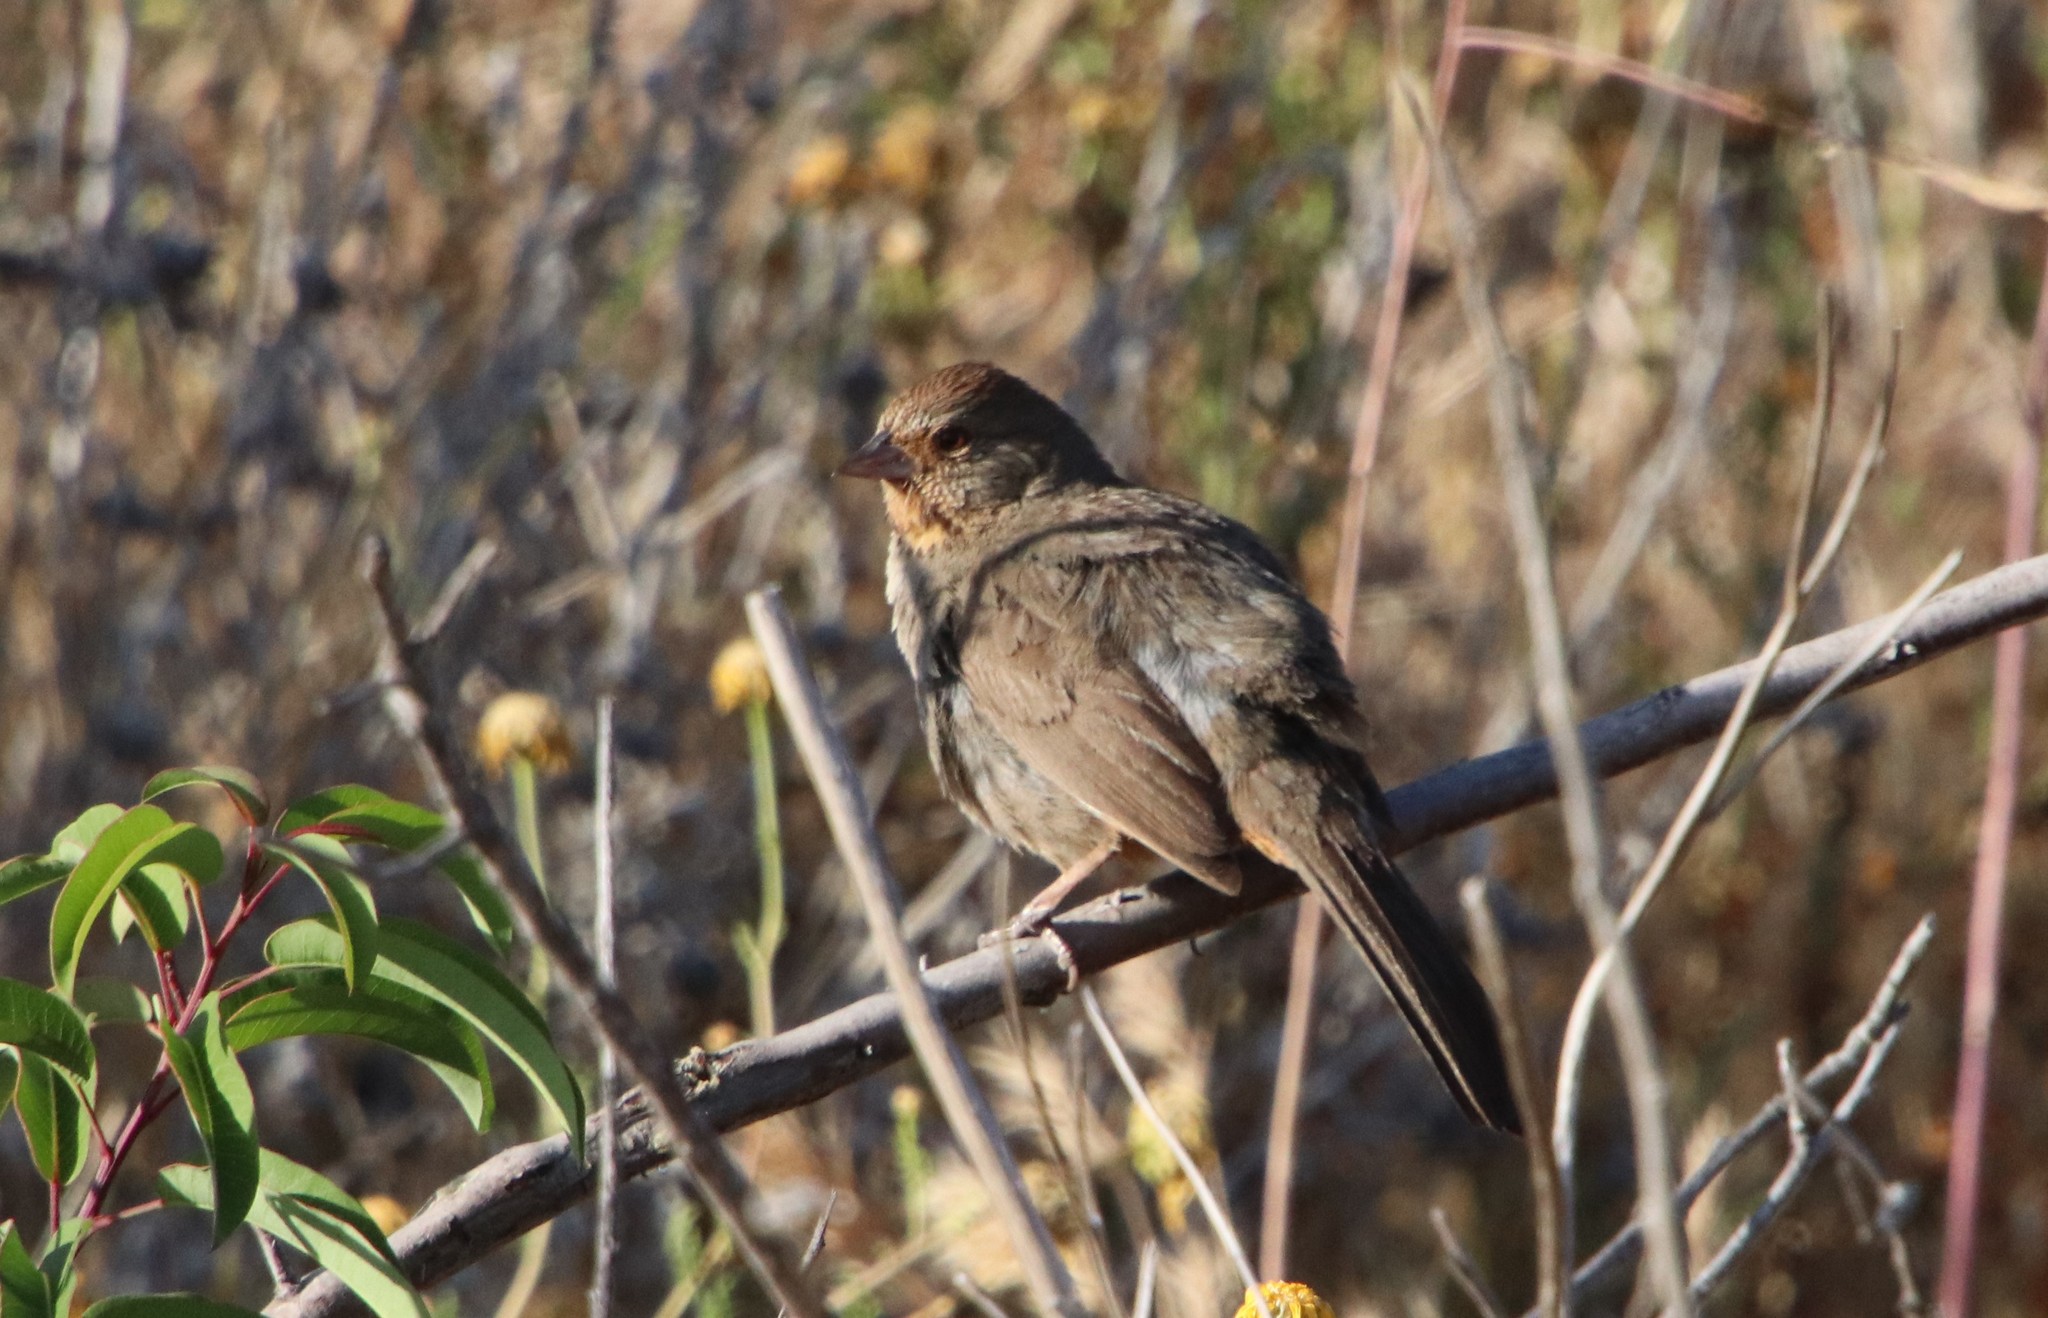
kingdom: Animalia
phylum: Chordata
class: Aves
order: Passeriformes
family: Passerellidae
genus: Melozone
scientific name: Melozone crissalis
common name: California towhee
